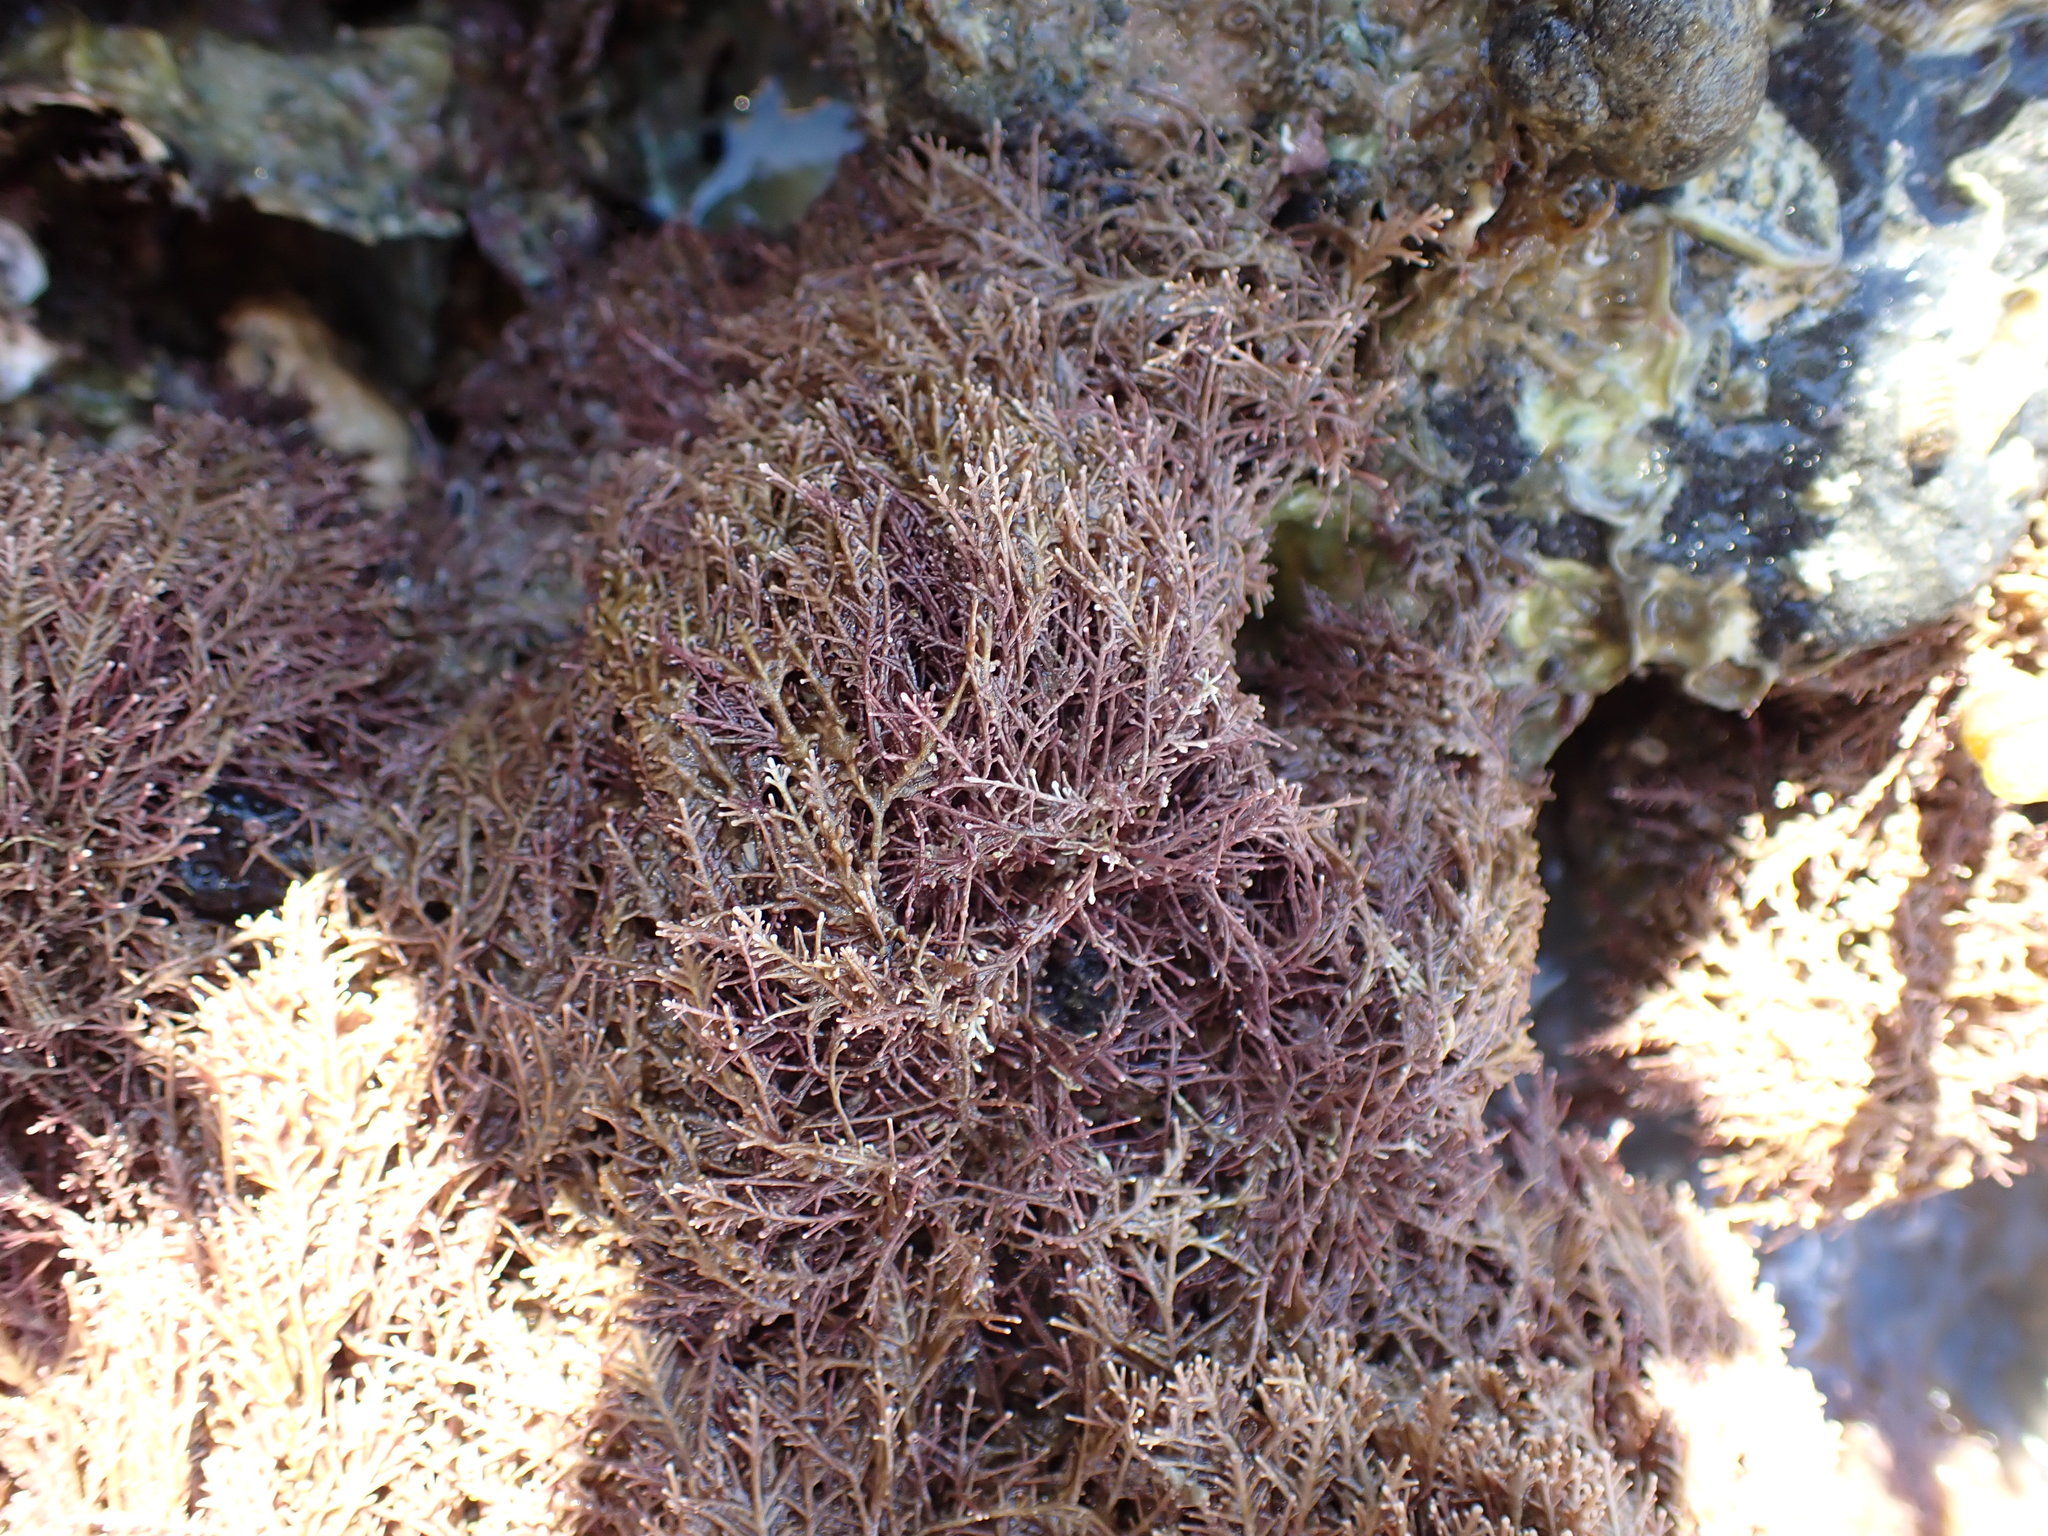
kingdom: Plantae
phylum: Rhodophyta
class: Florideophyceae
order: Corallinales
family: Corallinaceae
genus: Corallina
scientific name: Corallina officinalis
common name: Coral weed
